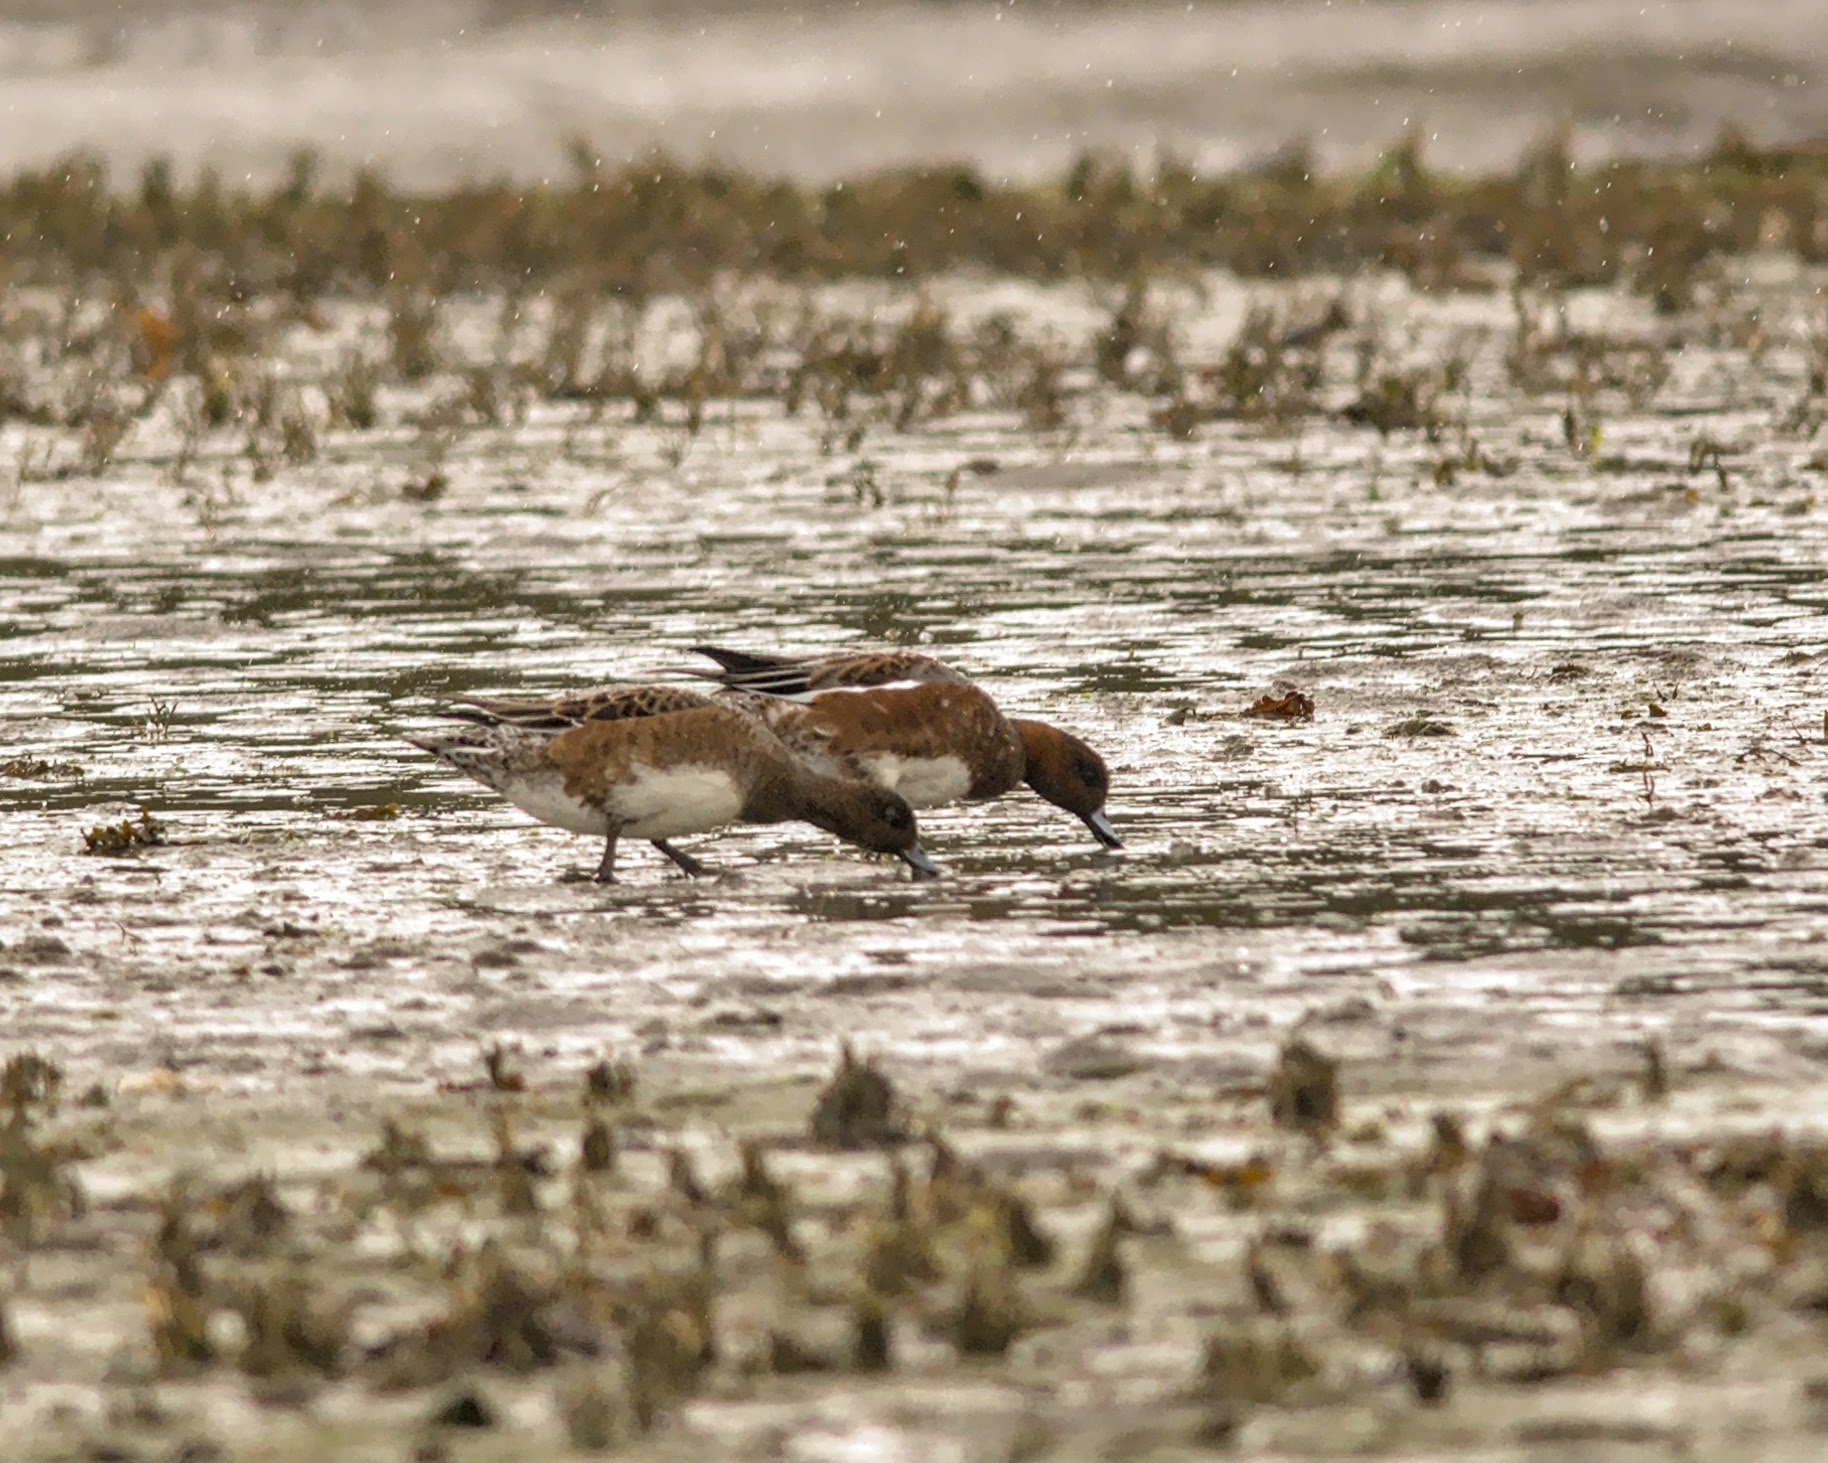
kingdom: Animalia
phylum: Chordata
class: Aves
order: Anseriformes
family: Anatidae
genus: Mareca
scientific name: Mareca penelope
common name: Eurasian wigeon
